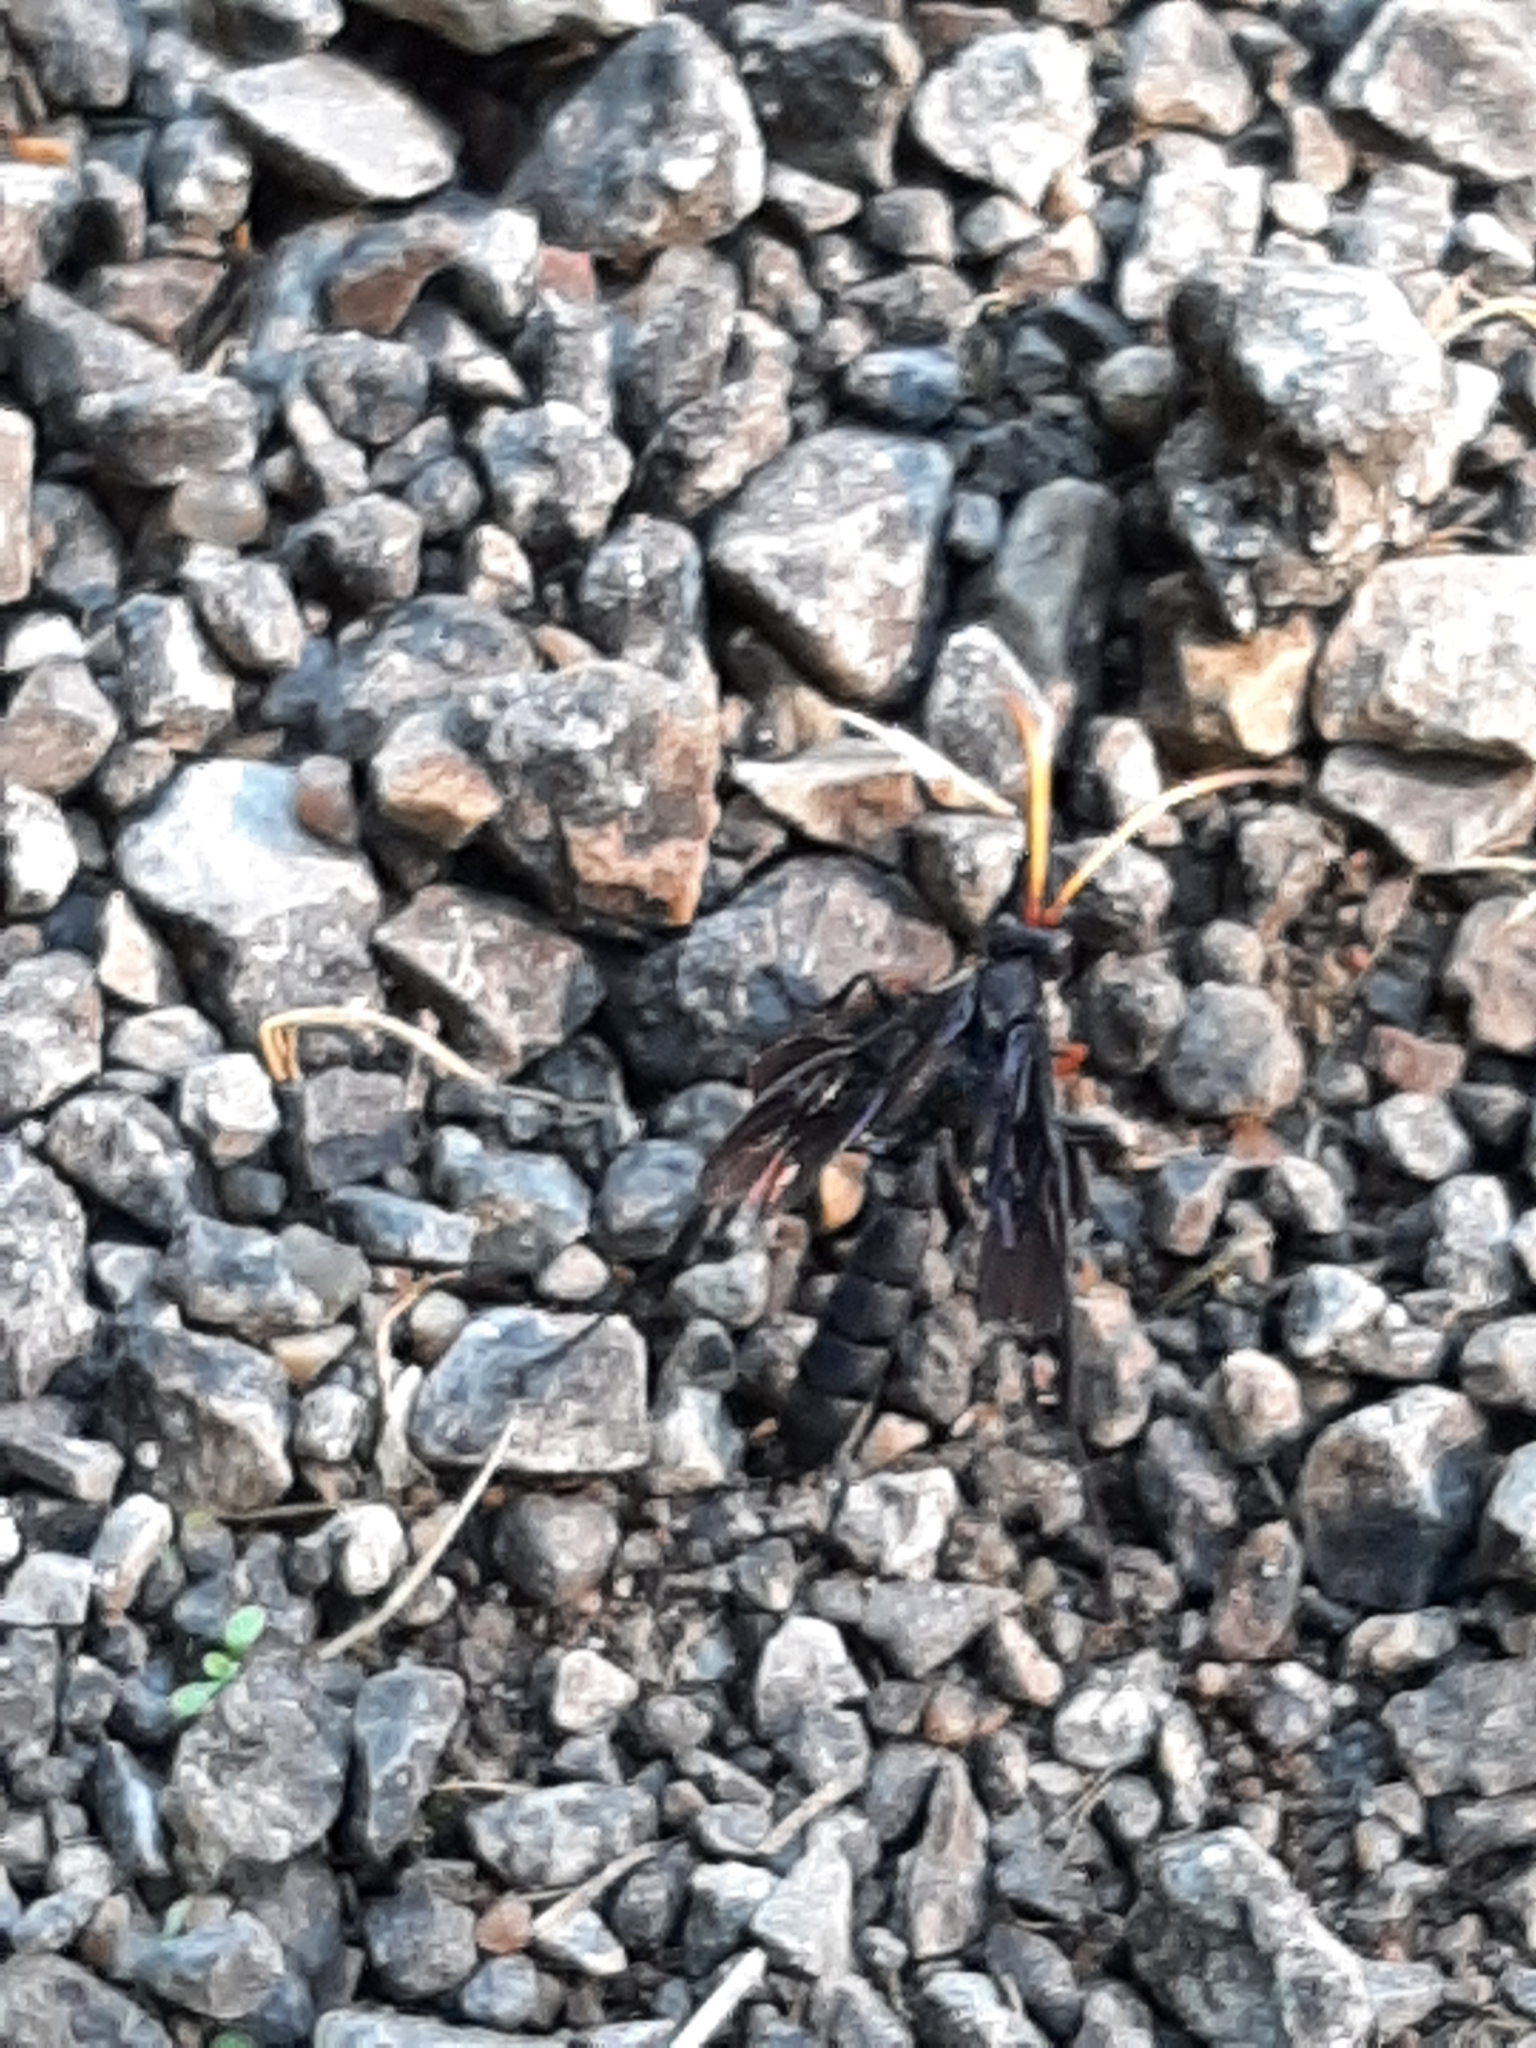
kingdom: Animalia
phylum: Arthropoda
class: Insecta
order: Hymenoptera
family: Ichneumonidae
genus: Gnamptopelta
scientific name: Gnamptopelta obsidianator
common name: Bent-shielded besieger wasp
